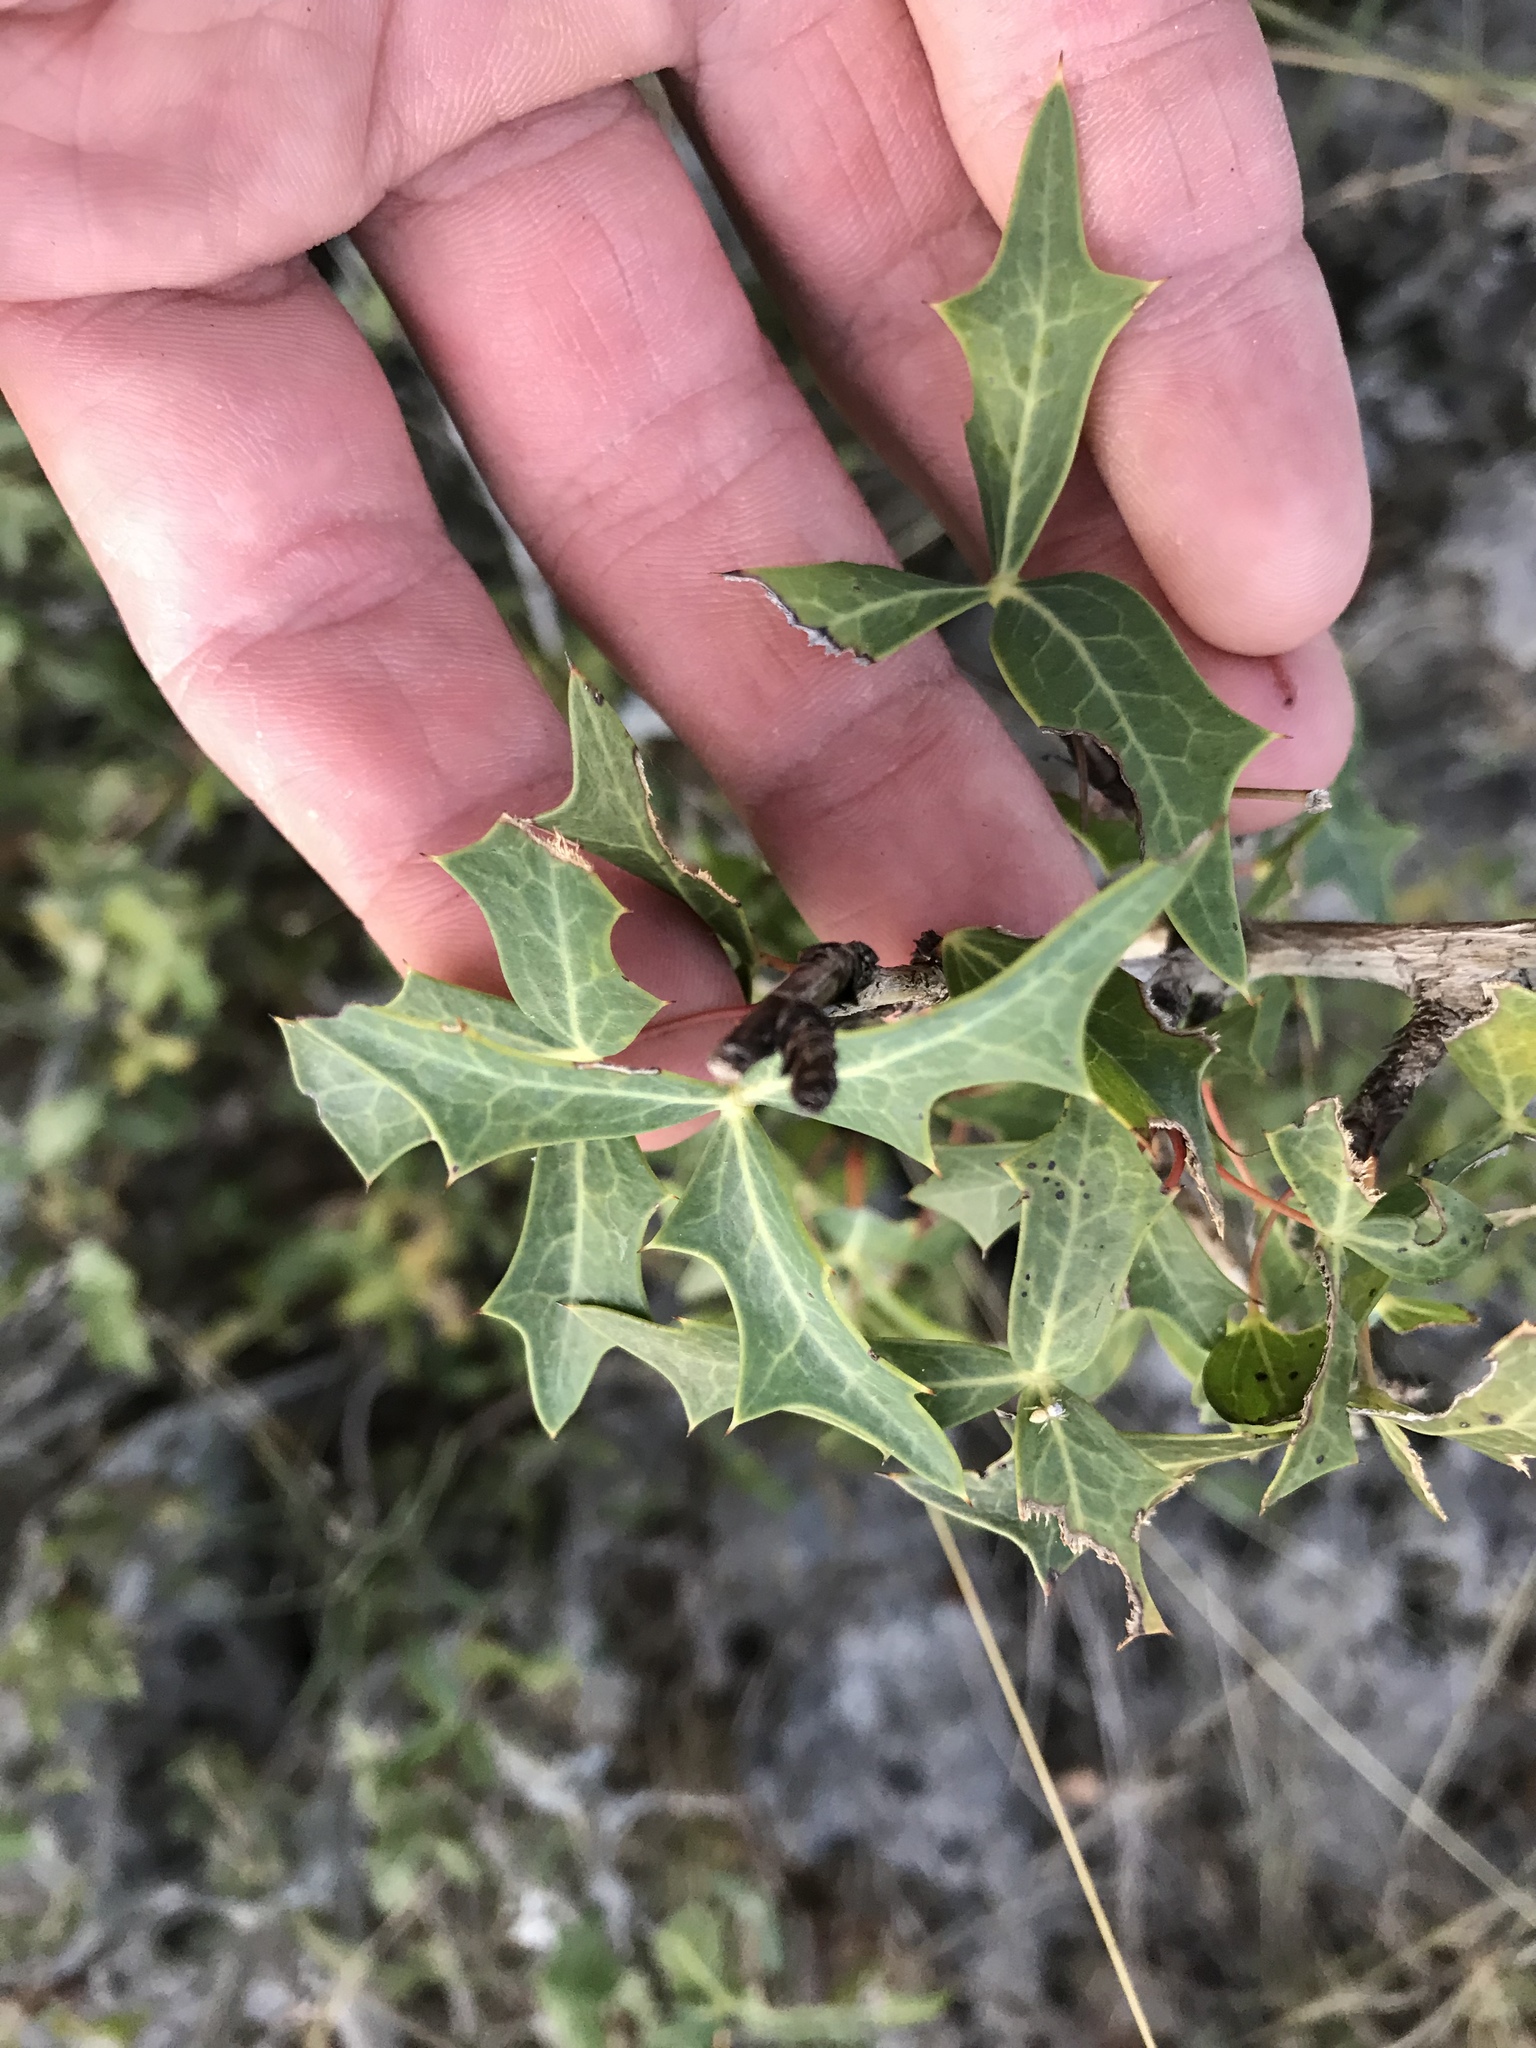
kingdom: Plantae
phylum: Tracheophyta
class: Magnoliopsida
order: Ranunculales
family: Berberidaceae
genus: Alloberberis
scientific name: Alloberberis trifoliolata
